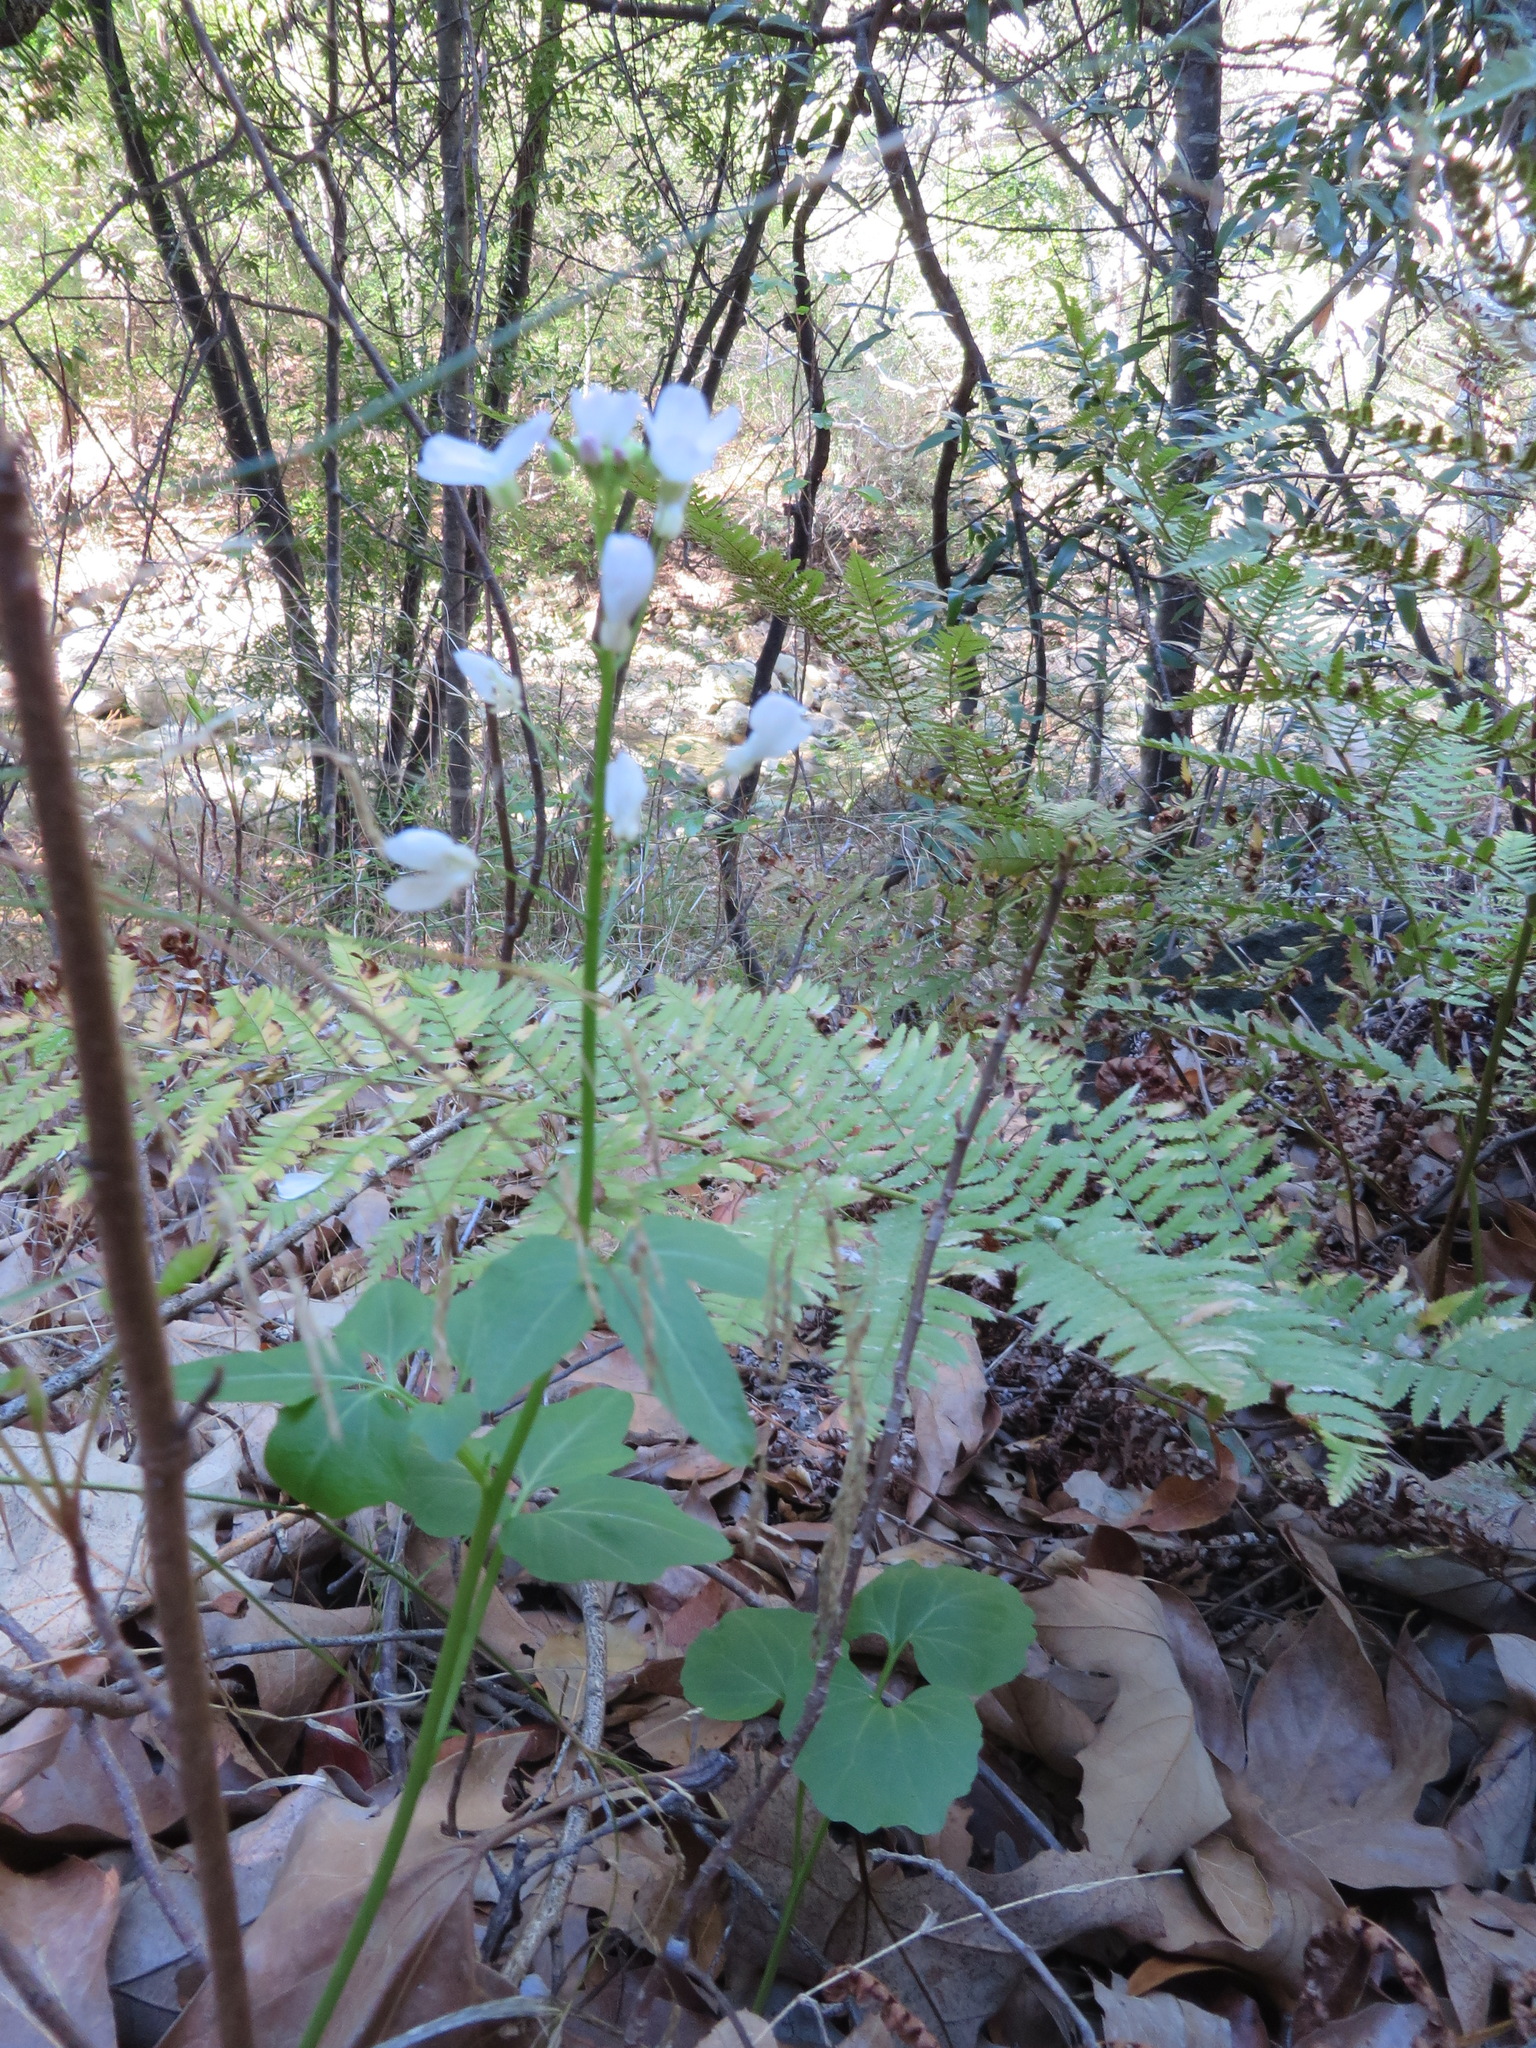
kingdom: Plantae
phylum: Tracheophyta
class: Magnoliopsida
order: Brassicales
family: Brassicaceae
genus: Cardamine
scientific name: Cardamine californica
